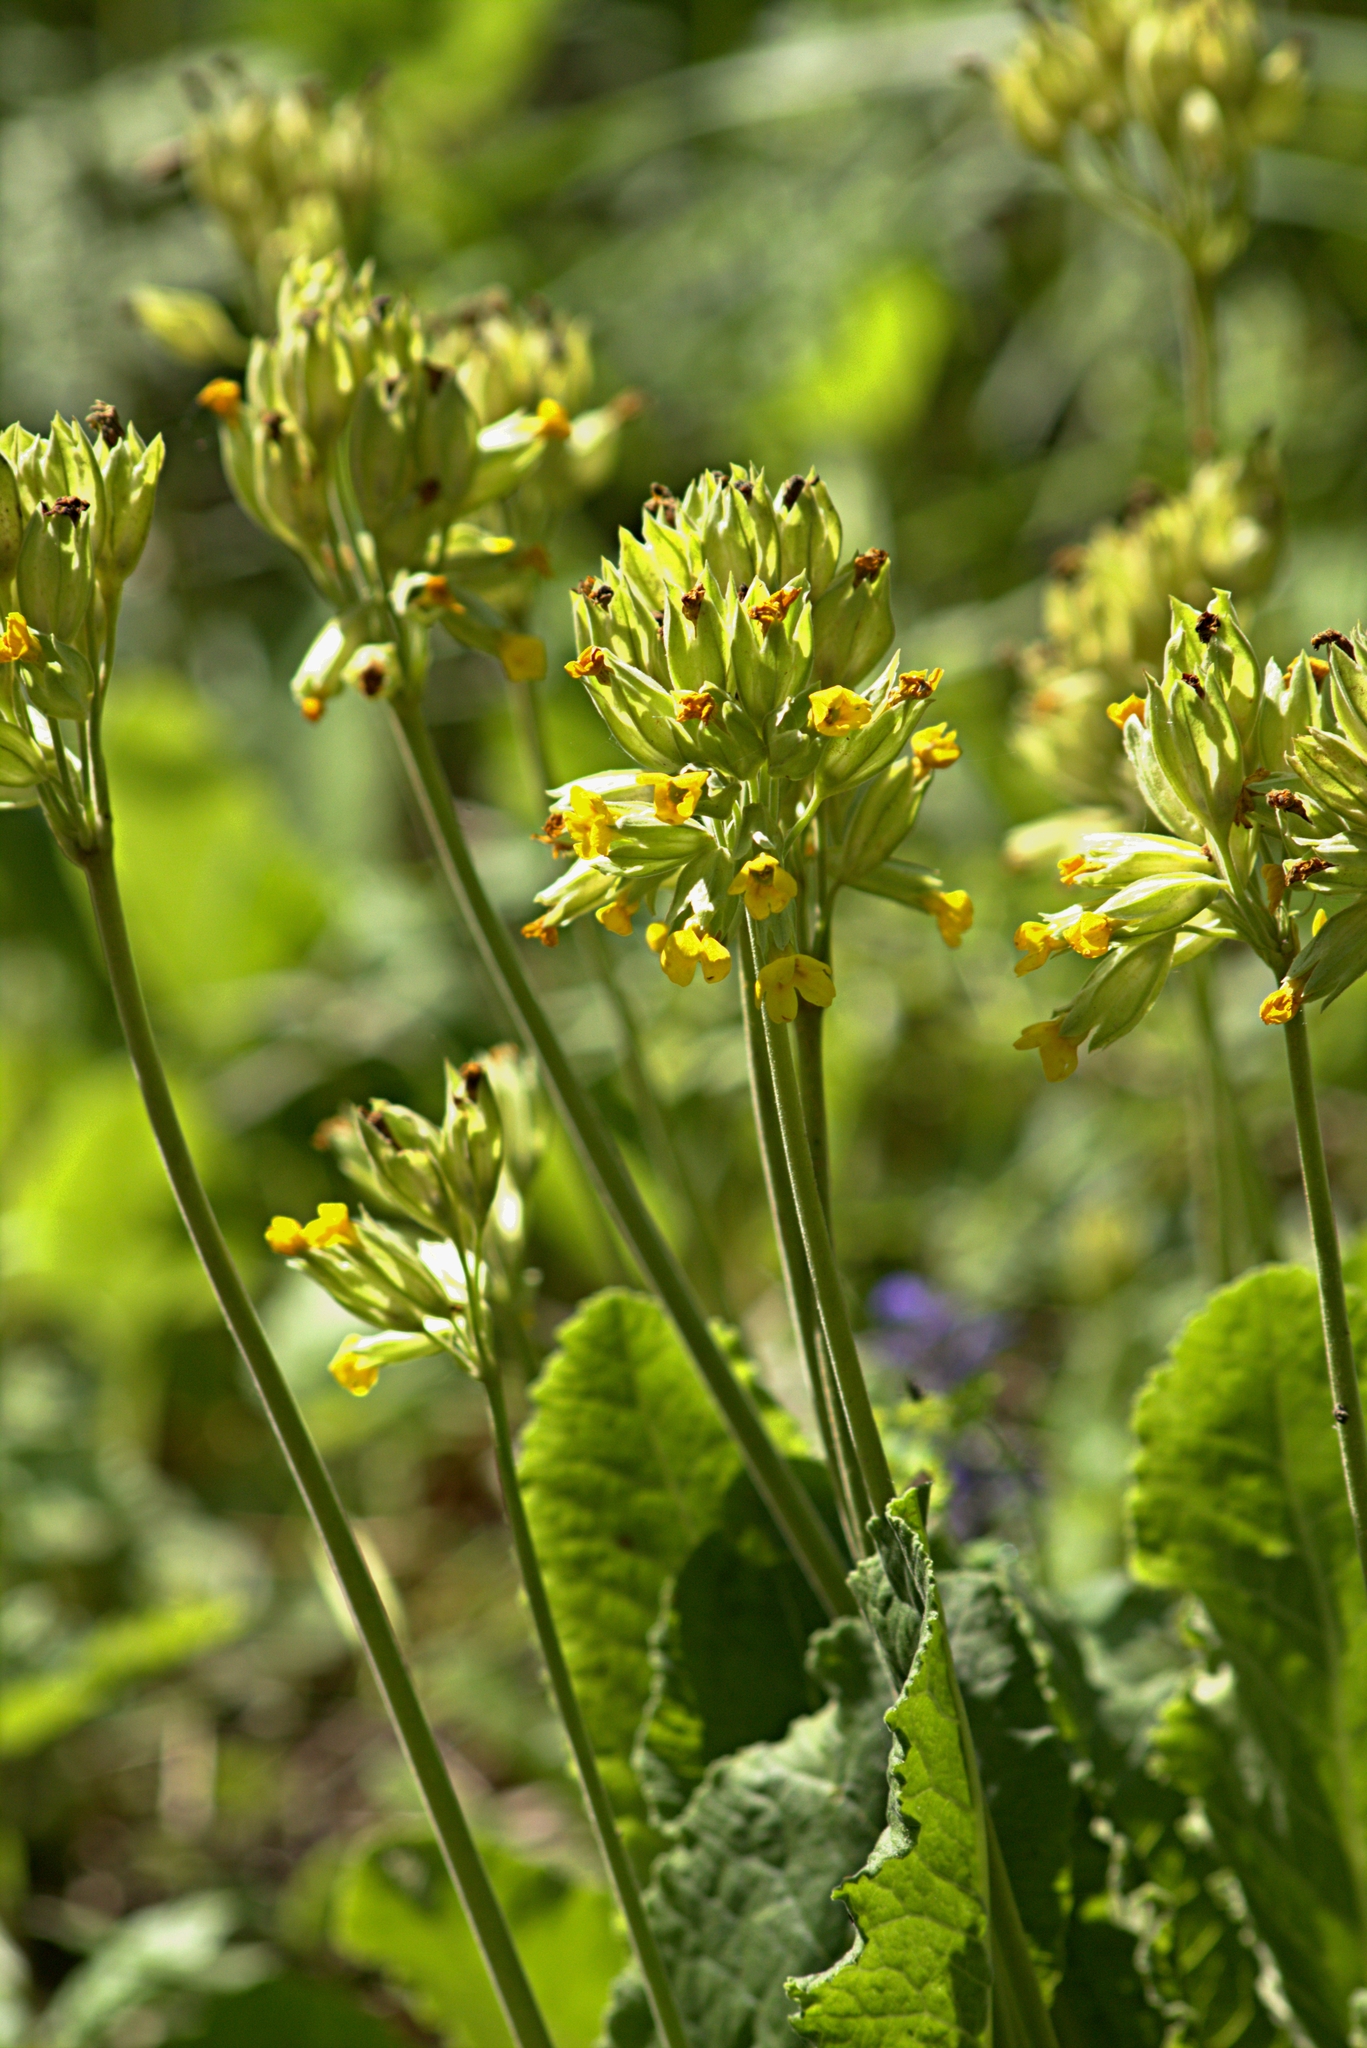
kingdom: Plantae
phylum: Tracheophyta
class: Magnoliopsida
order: Ericales
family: Primulaceae
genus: Primula
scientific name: Primula veris
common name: Cowslip
